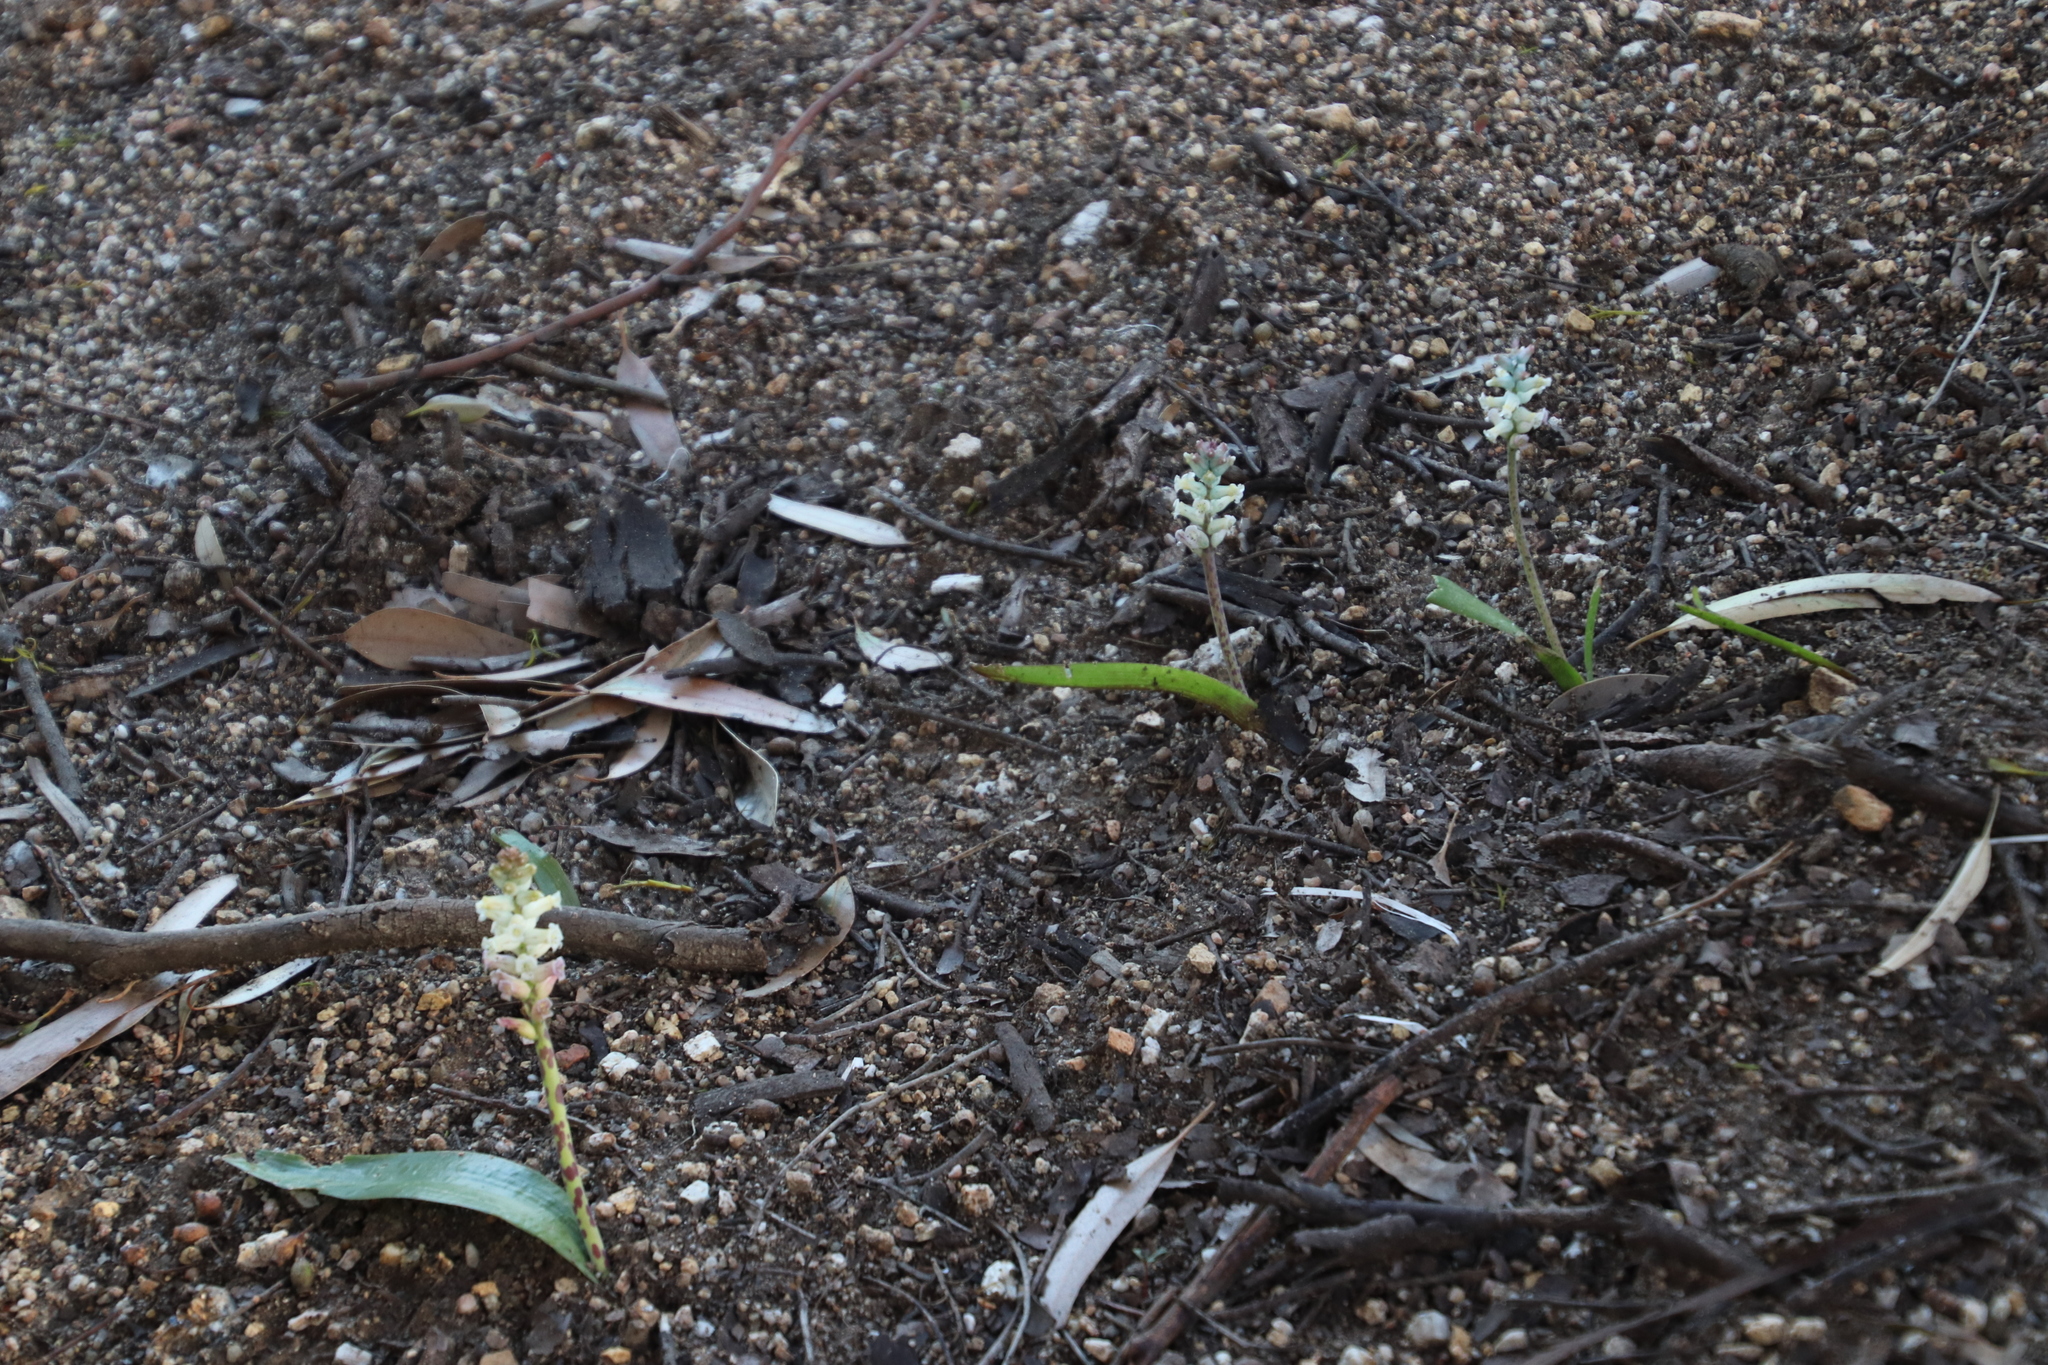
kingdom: Plantae
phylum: Tracheophyta
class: Liliopsida
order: Asparagales
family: Asparagaceae
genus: Lachenalia
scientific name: Lachenalia fistulosa
